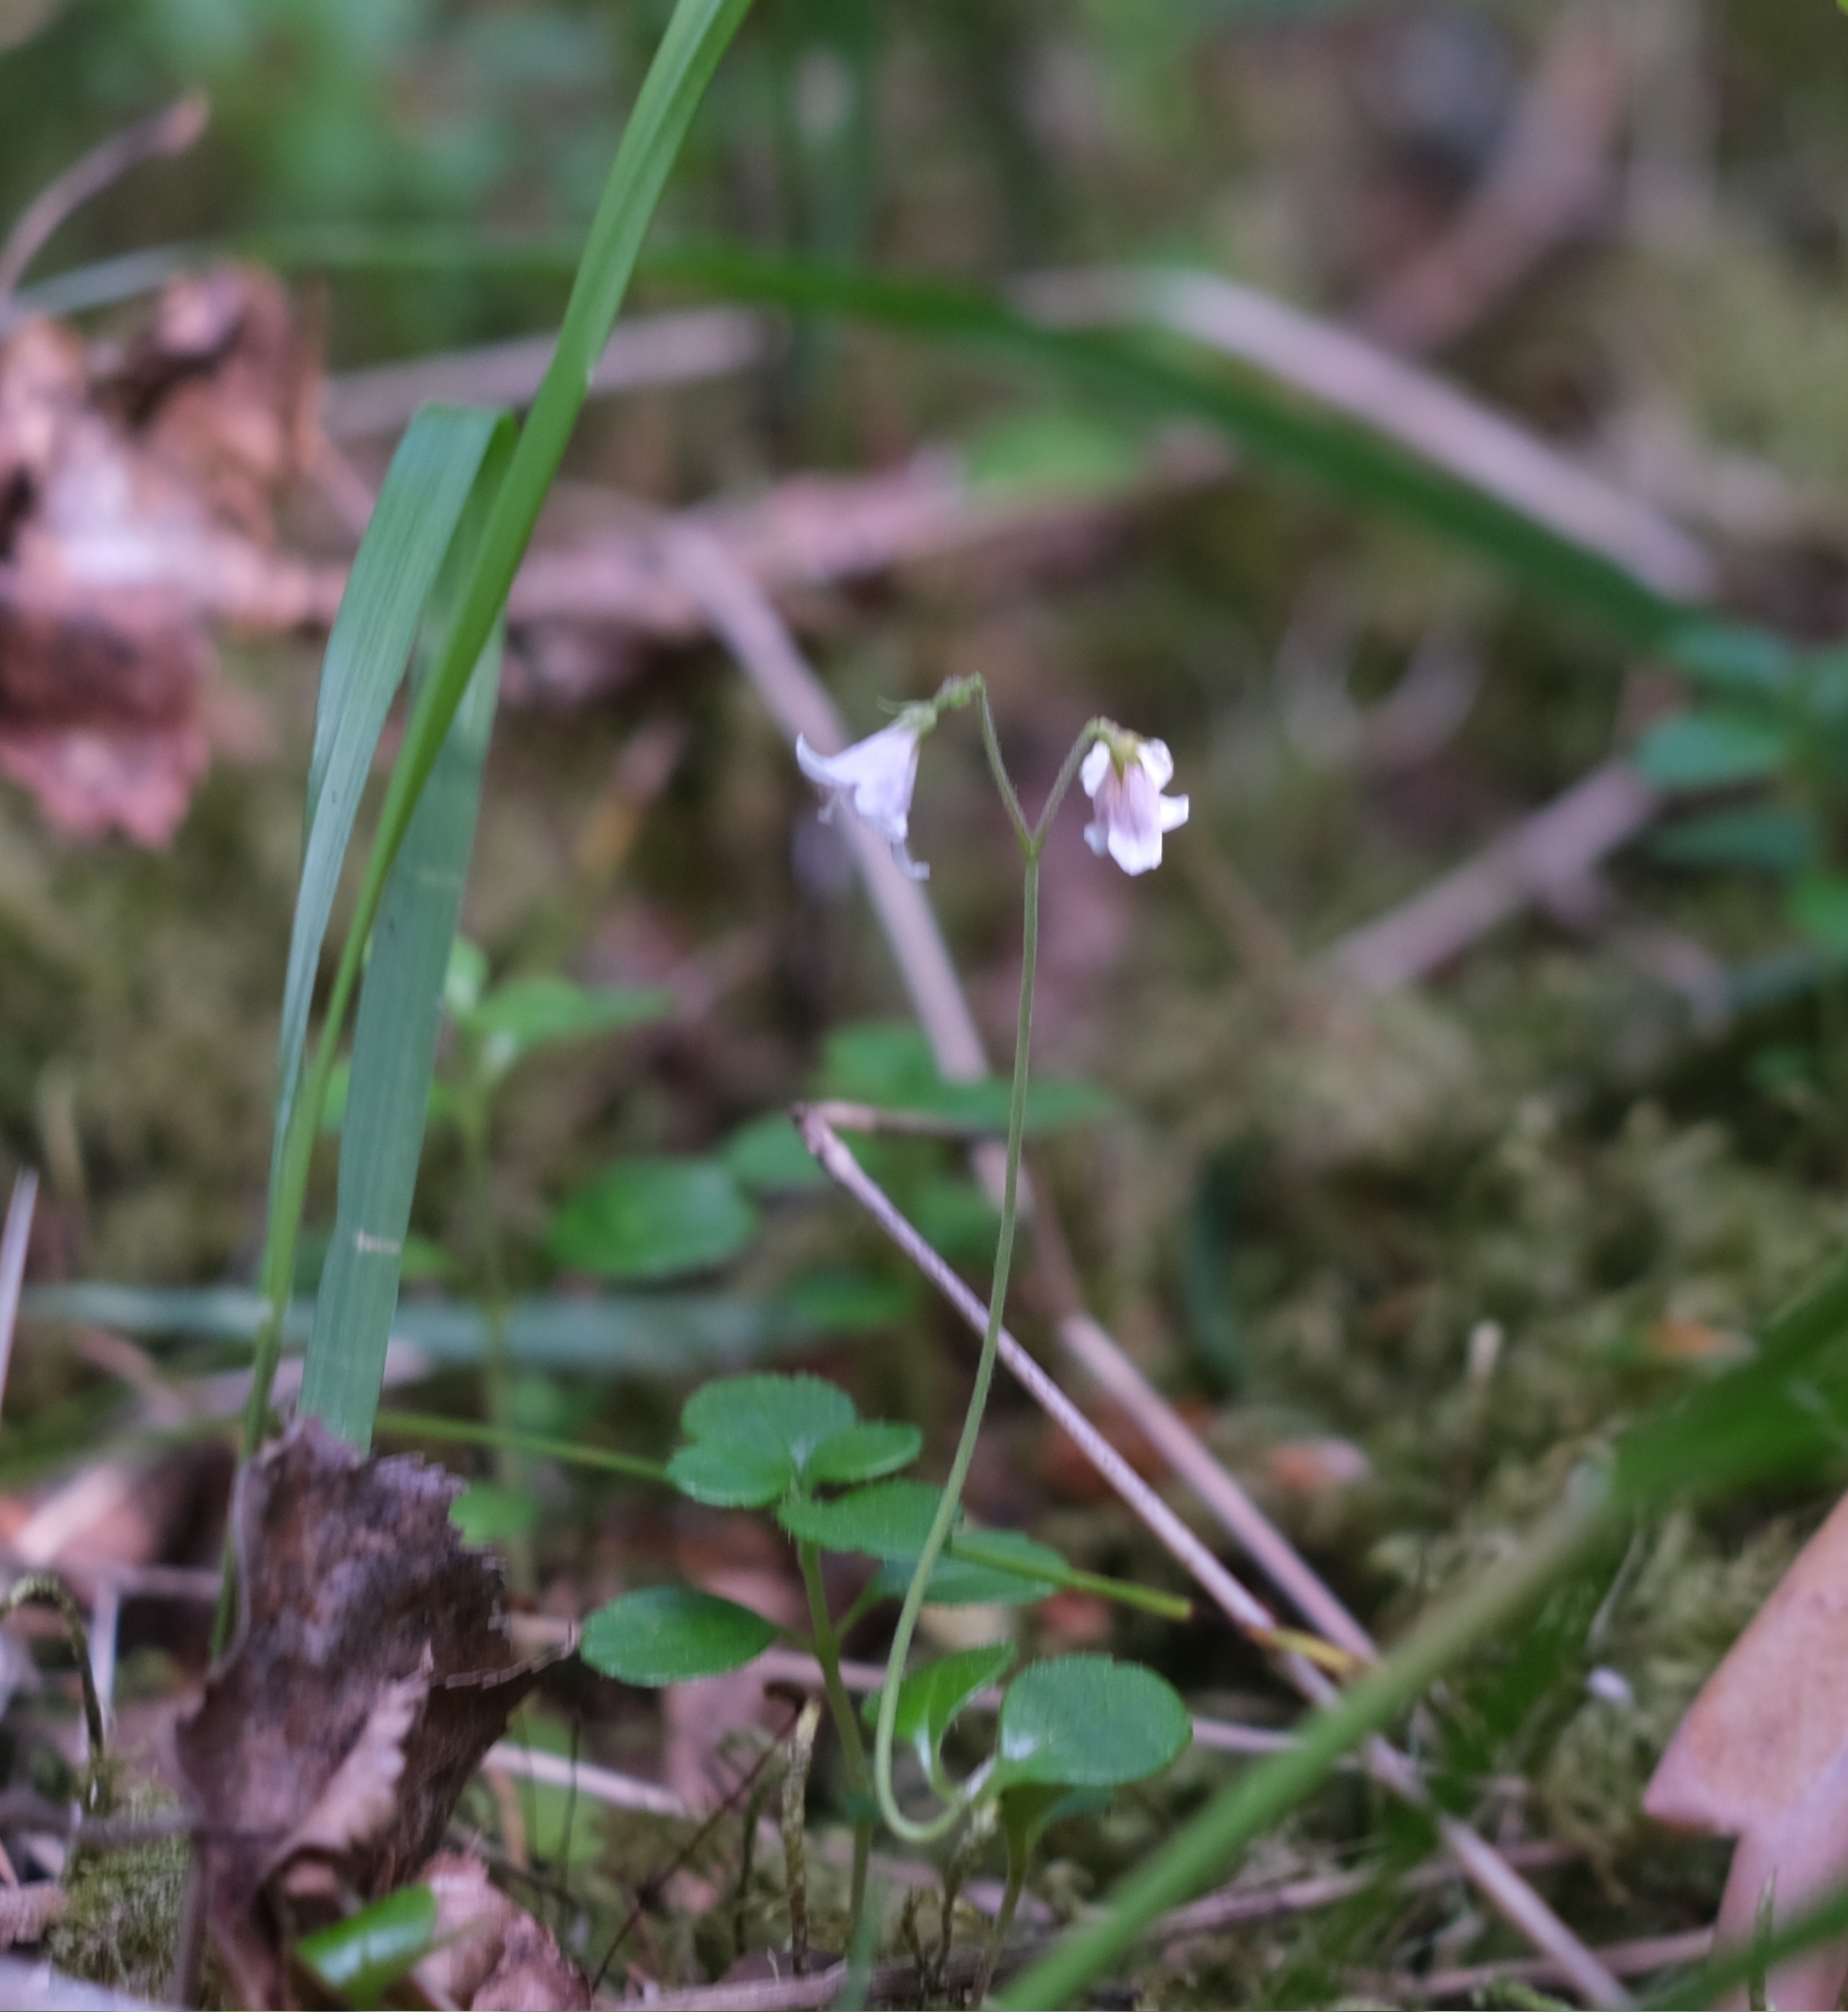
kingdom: Plantae
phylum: Tracheophyta
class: Magnoliopsida
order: Dipsacales
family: Caprifoliaceae
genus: Linnaea
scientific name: Linnaea borealis
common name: Twinflower
